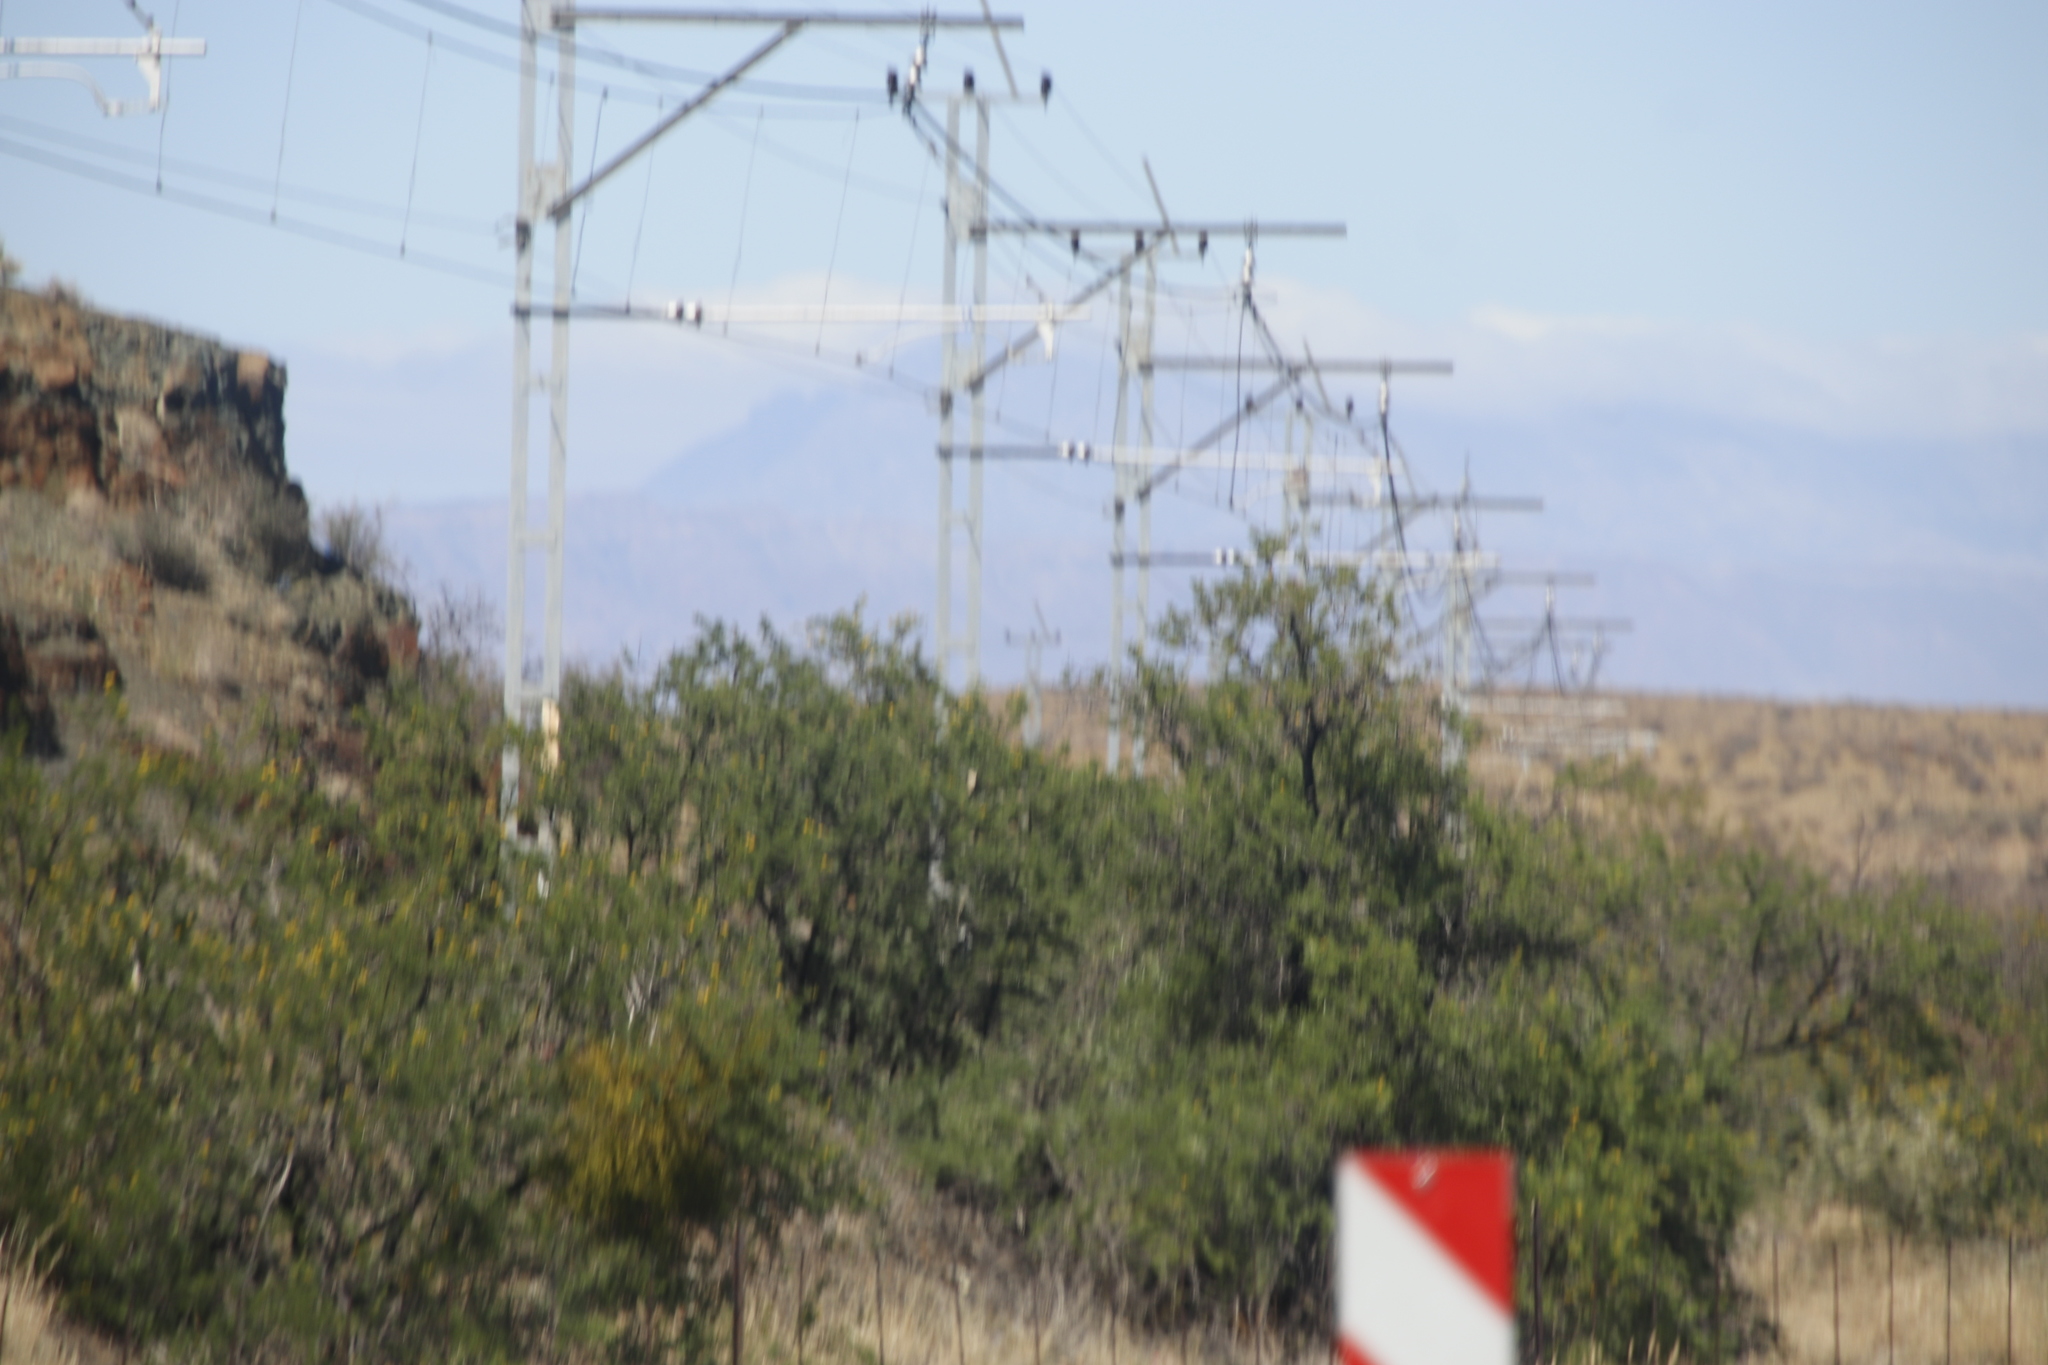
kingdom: Plantae
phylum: Tracheophyta
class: Magnoliopsida
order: Fabales
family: Fabaceae
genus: Vachellia
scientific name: Vachellia karroo
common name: Sweet thorn
